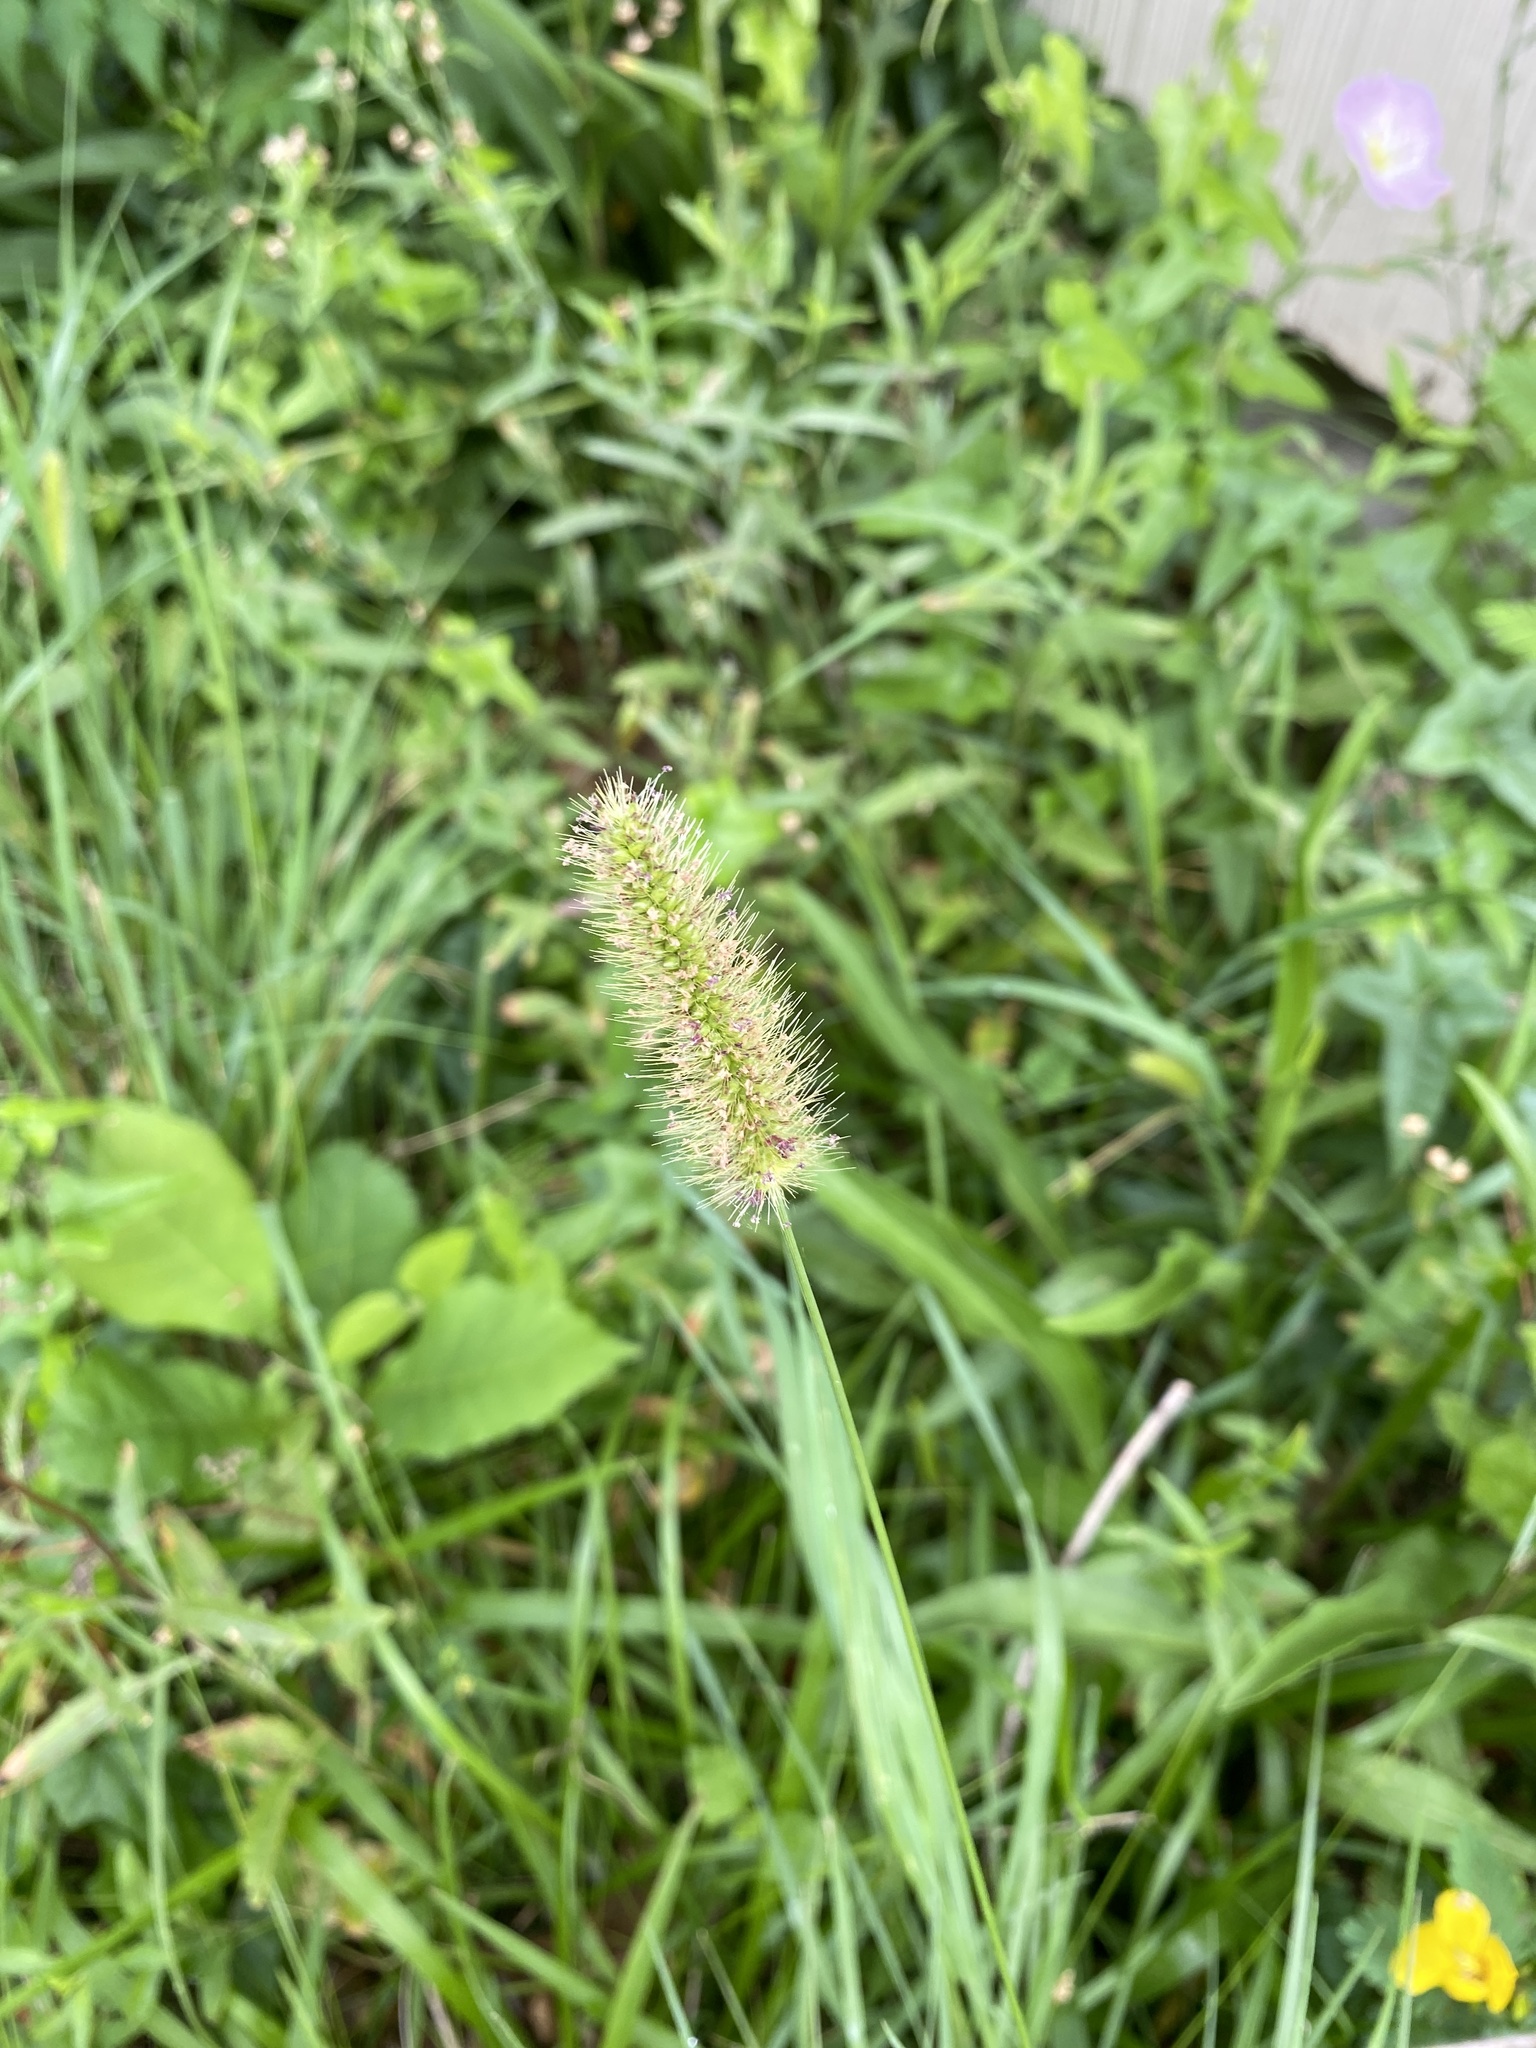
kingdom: Plantae
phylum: Tracheophyta
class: Liliopsida
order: Poales
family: Poaceae
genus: Setaria
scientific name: Setaria parviflora
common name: Knotroot bristle-grass
